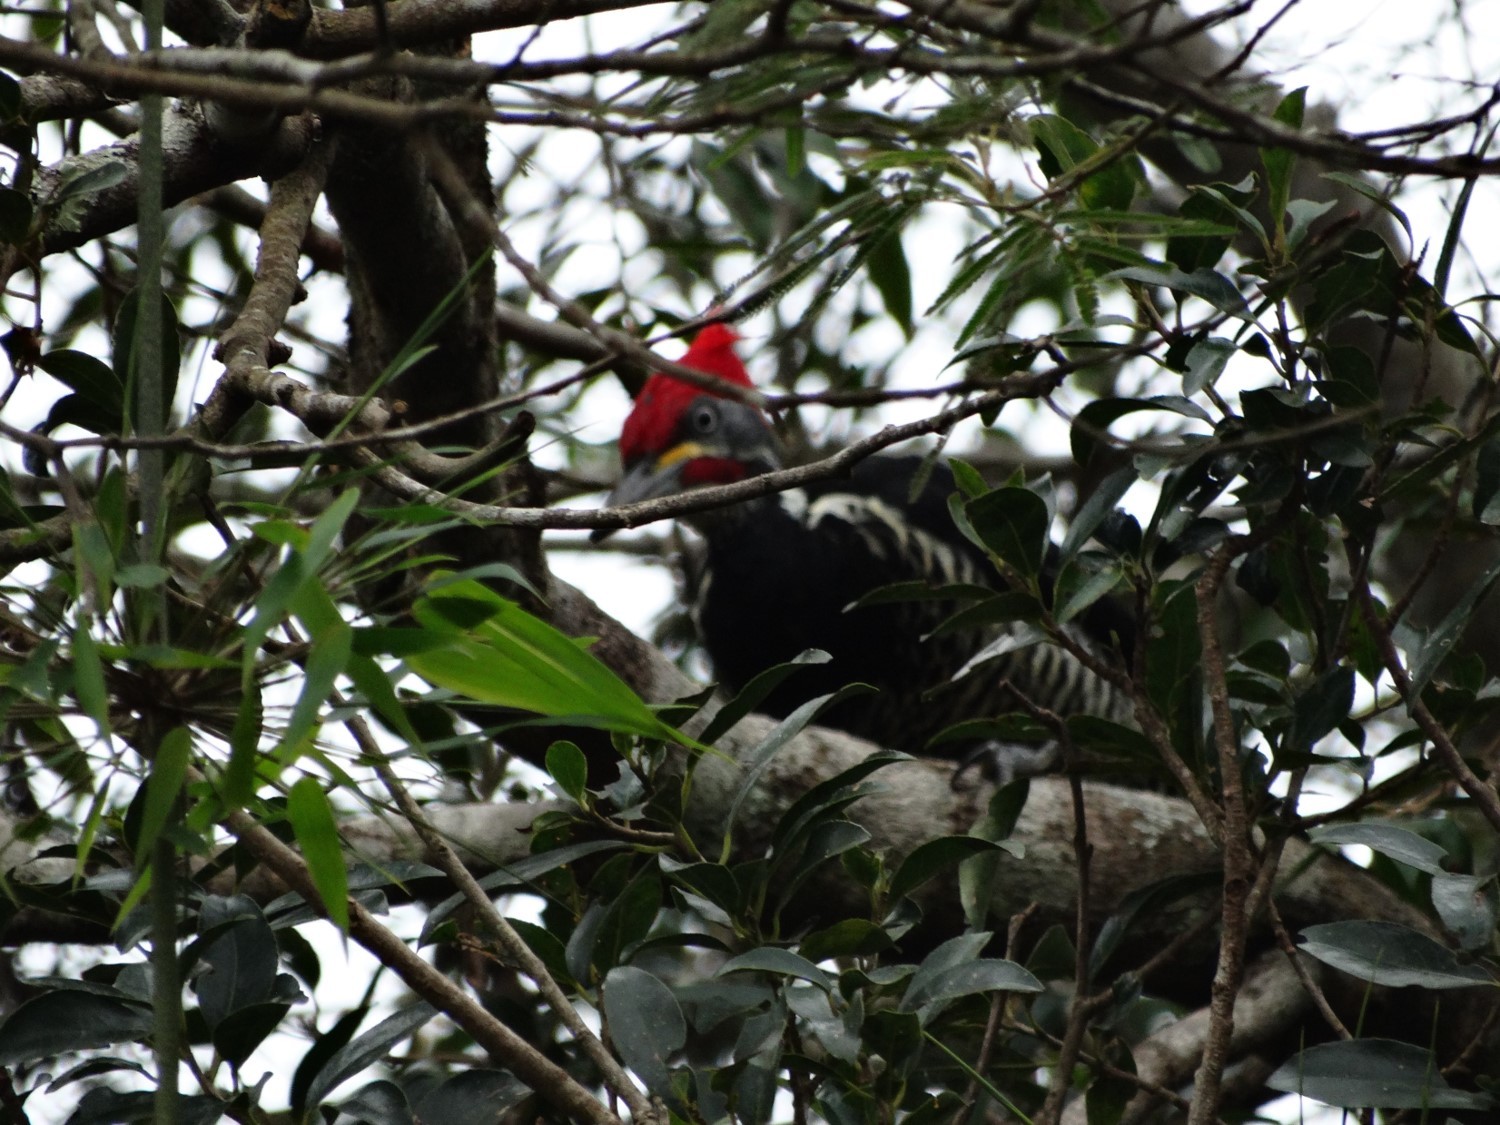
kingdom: Animalia
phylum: Chordata
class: Aves
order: Piciformes
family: Picidae
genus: Dryocopus
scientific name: Dryocopus lineatus
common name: Lineated woodpecker
